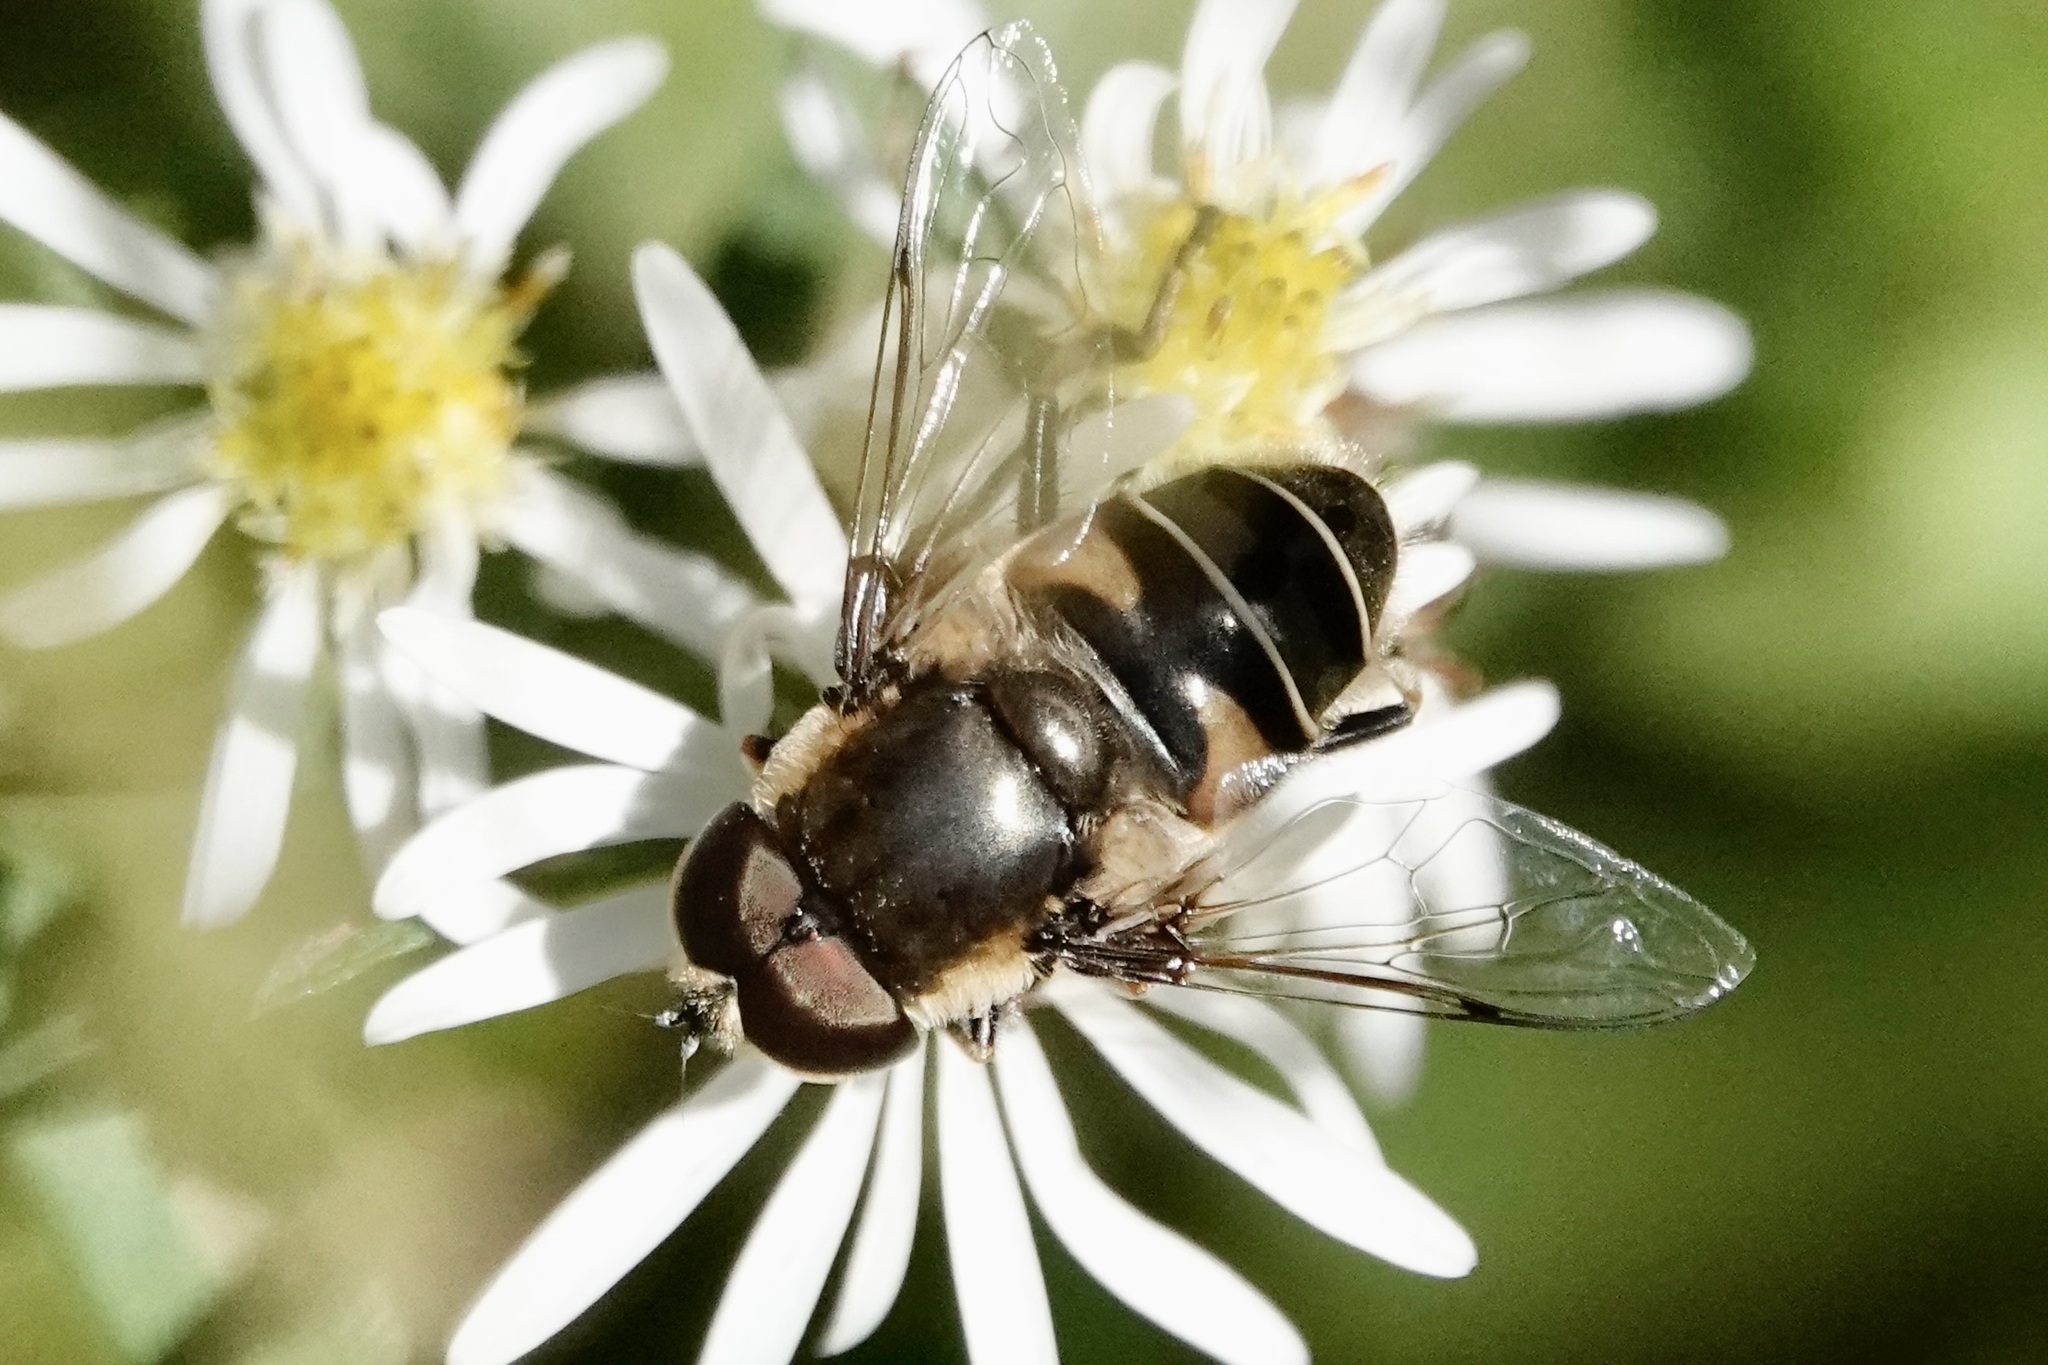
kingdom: Animalia
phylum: Arthropoda
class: Insecta
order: Diptera
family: Syrphidae
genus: Eristalis
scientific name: Eristalis dimidiata
